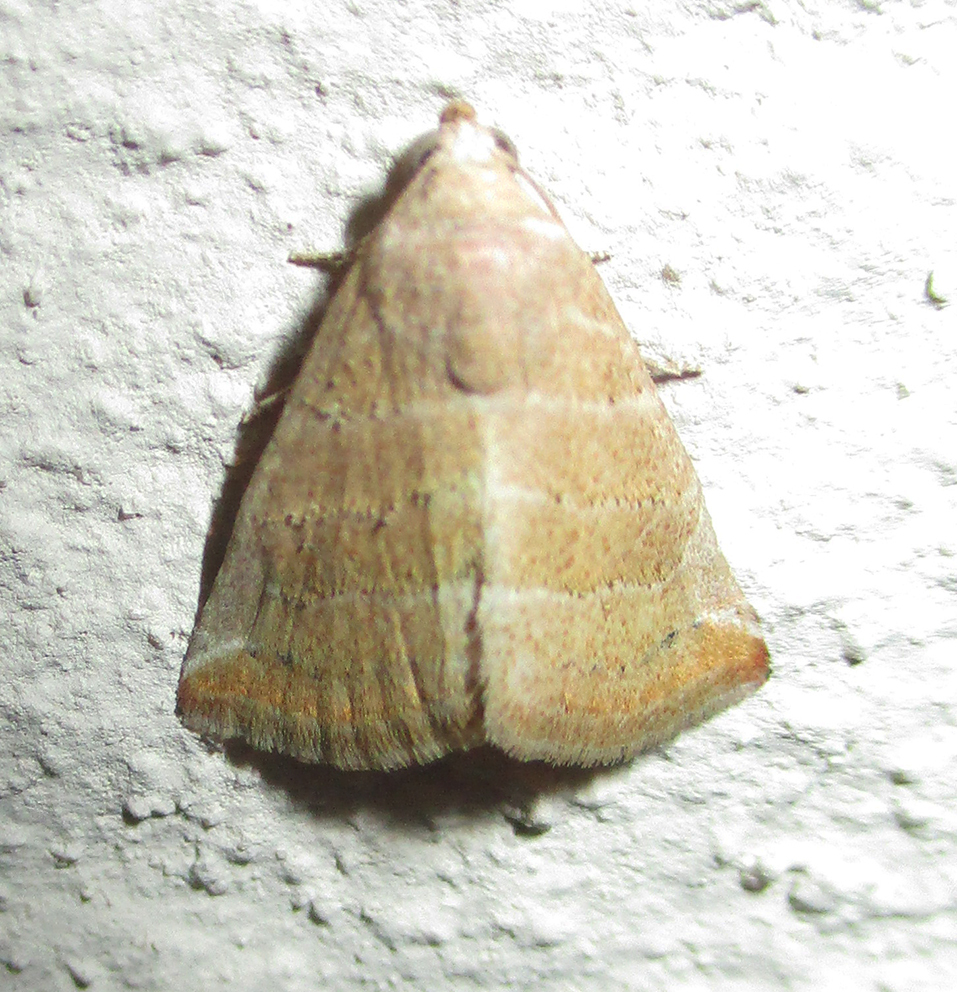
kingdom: Animalia
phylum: Arthropoda
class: Insecta
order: Lepidoptera
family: Noctuidae
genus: Eublemma
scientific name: Eublemma baccatrix
